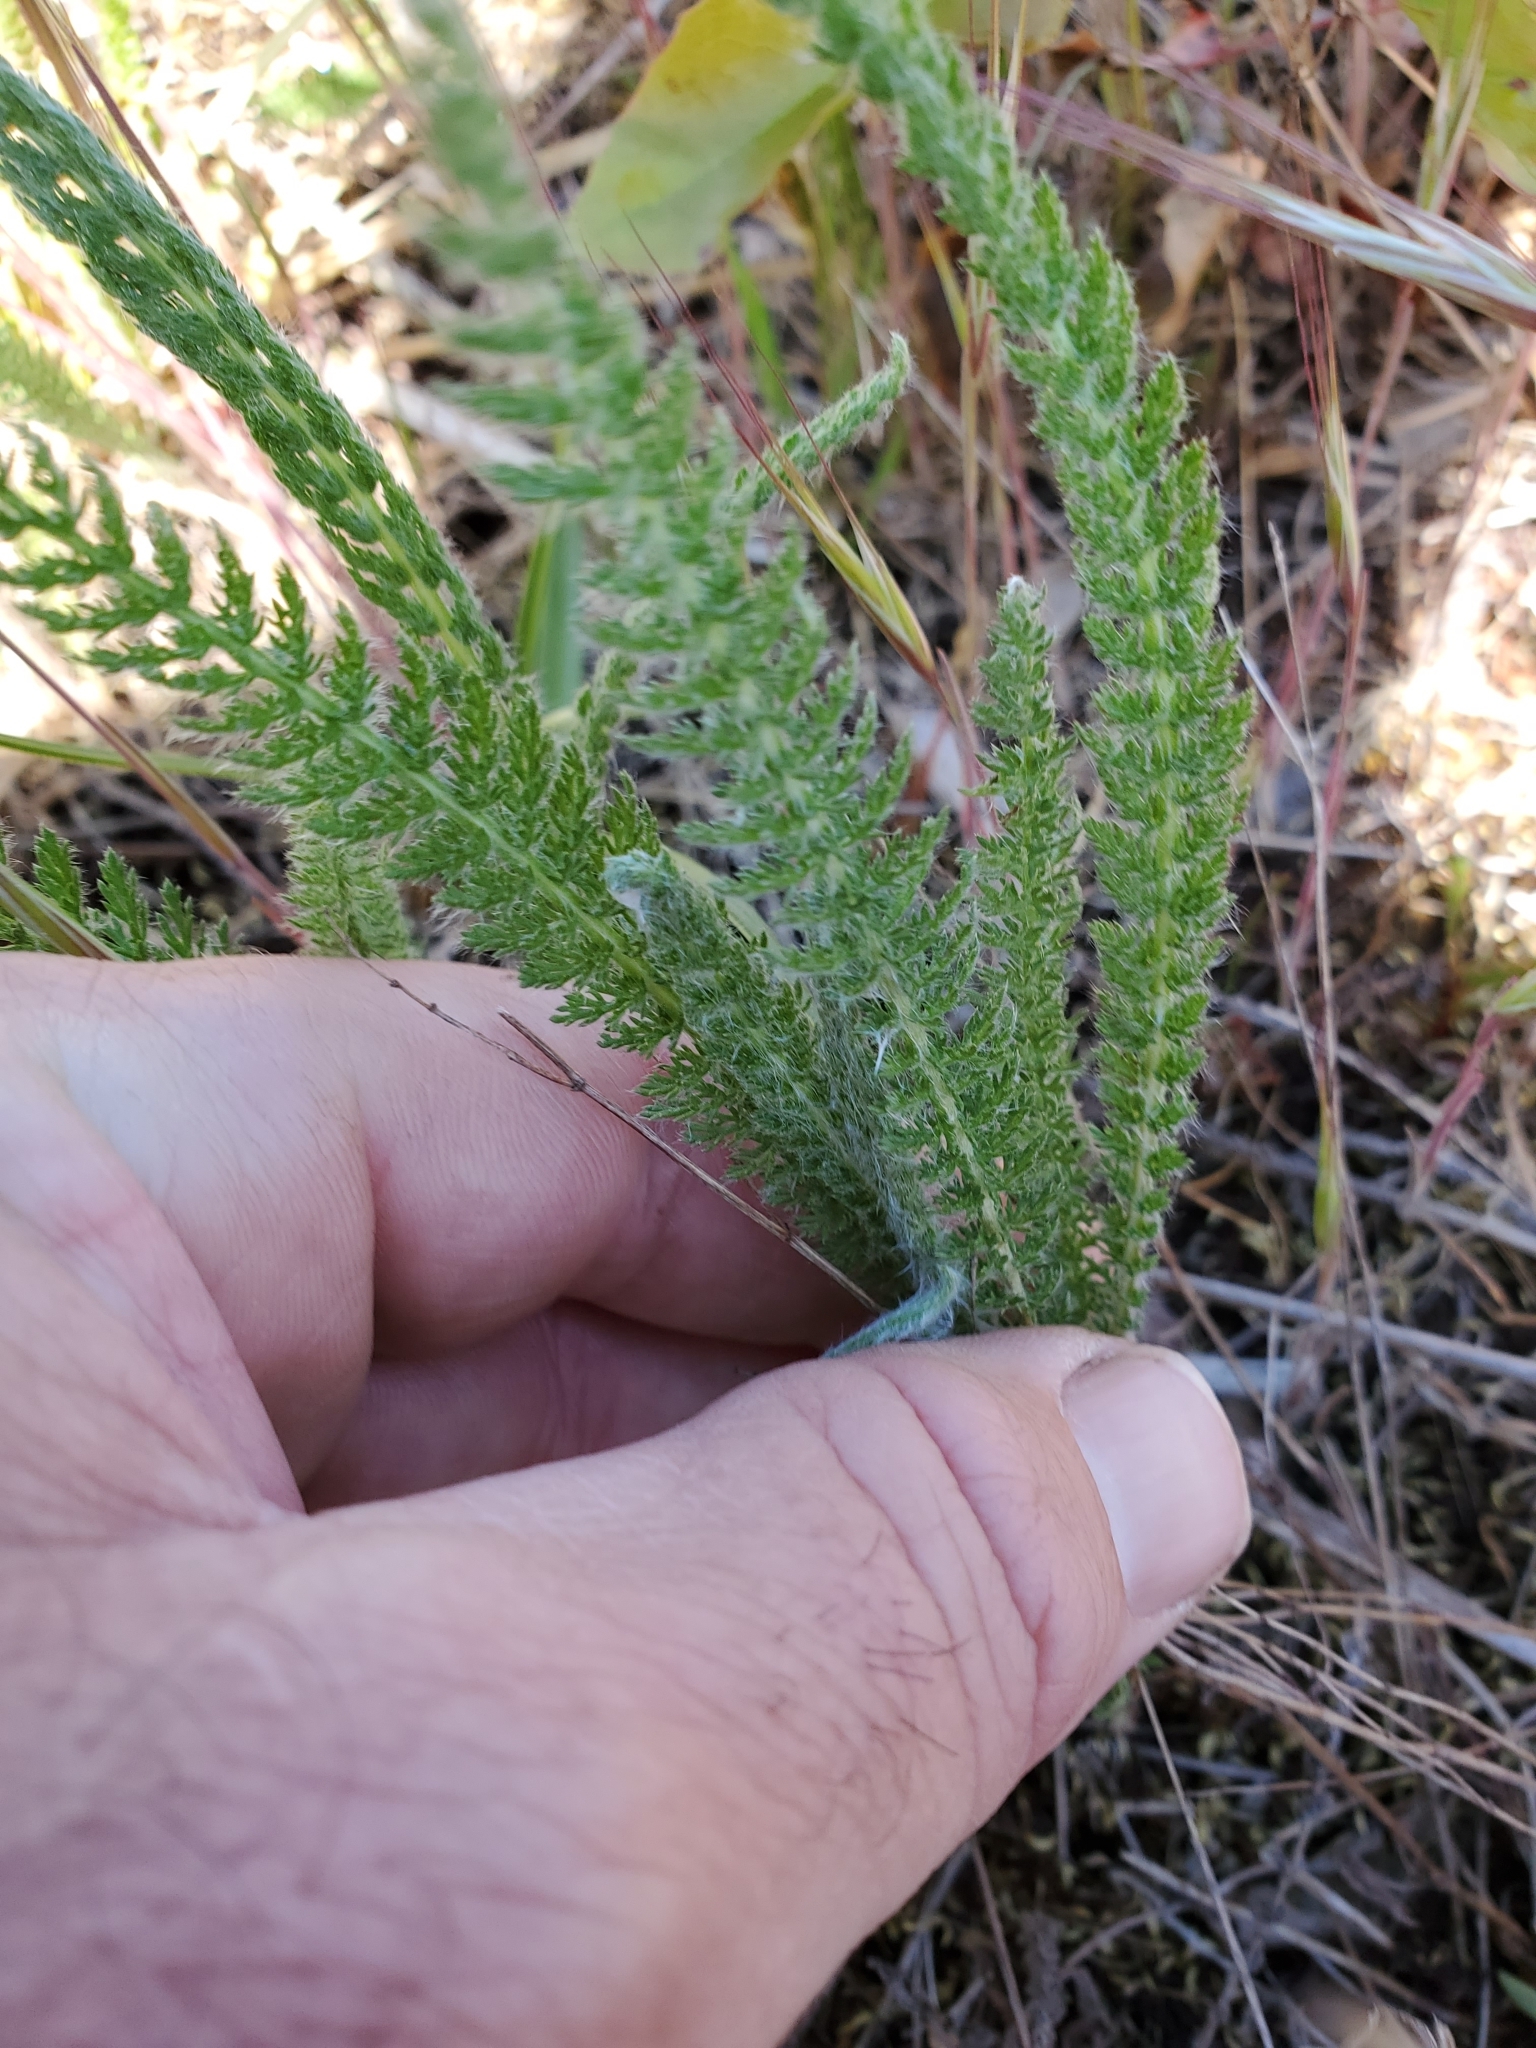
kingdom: Plantae
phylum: Tracheophyta
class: Magnoliopsida
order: Asterales
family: Asteraceae
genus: Achillea
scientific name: Achillea millefolium
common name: Yarrow
